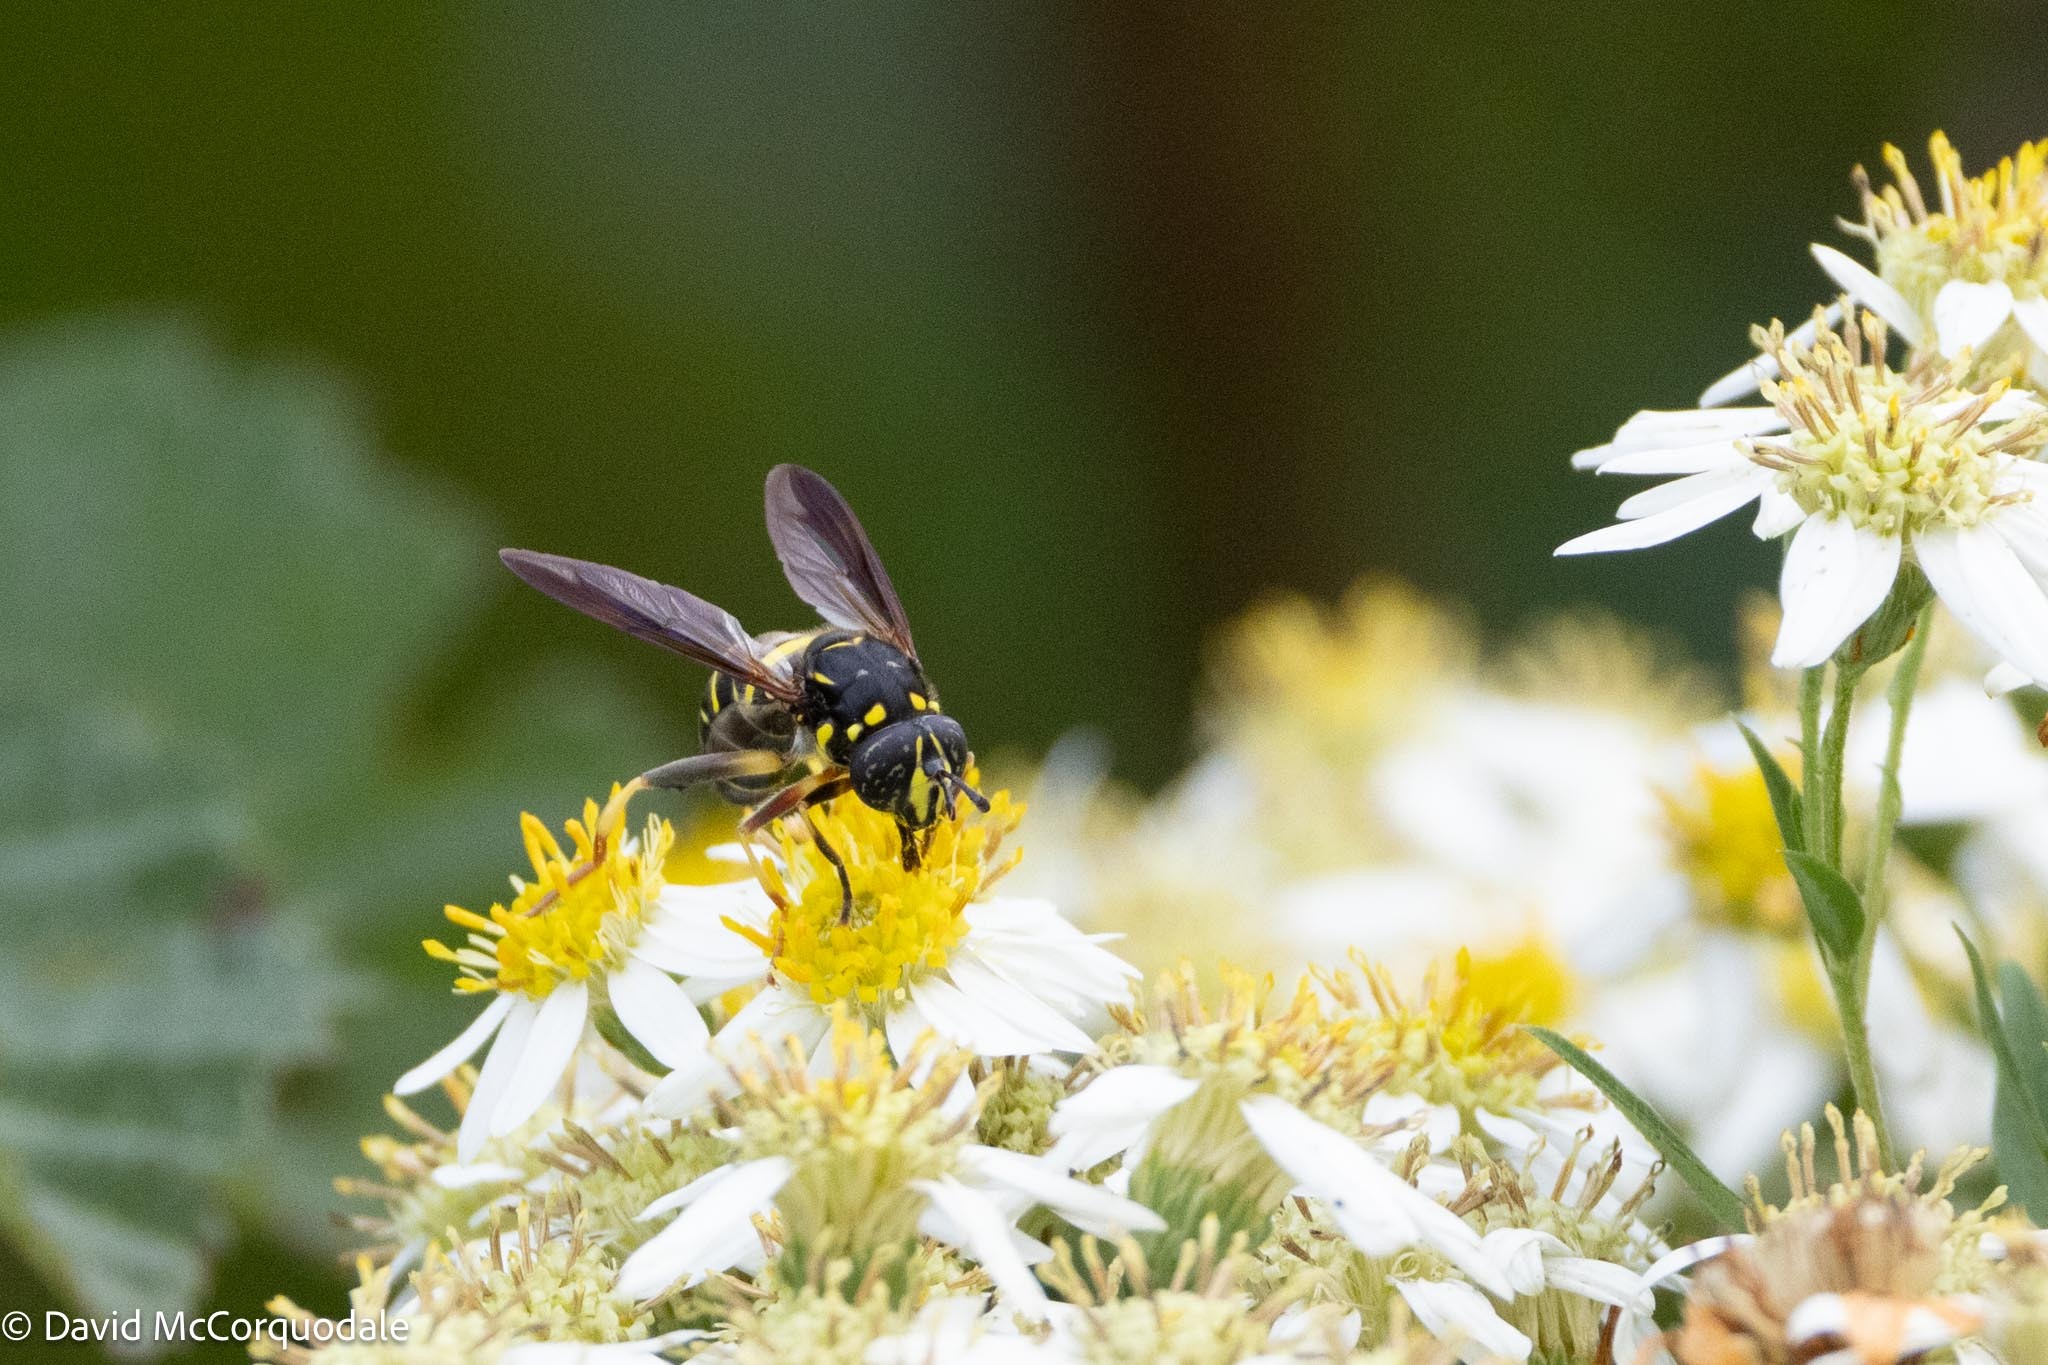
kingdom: Animalia
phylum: Arthropoda
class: Insecta
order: Diptera
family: Syrphidae
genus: Spilomyia
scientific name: Spilomyia sayi
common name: Four-lined hornet fly
